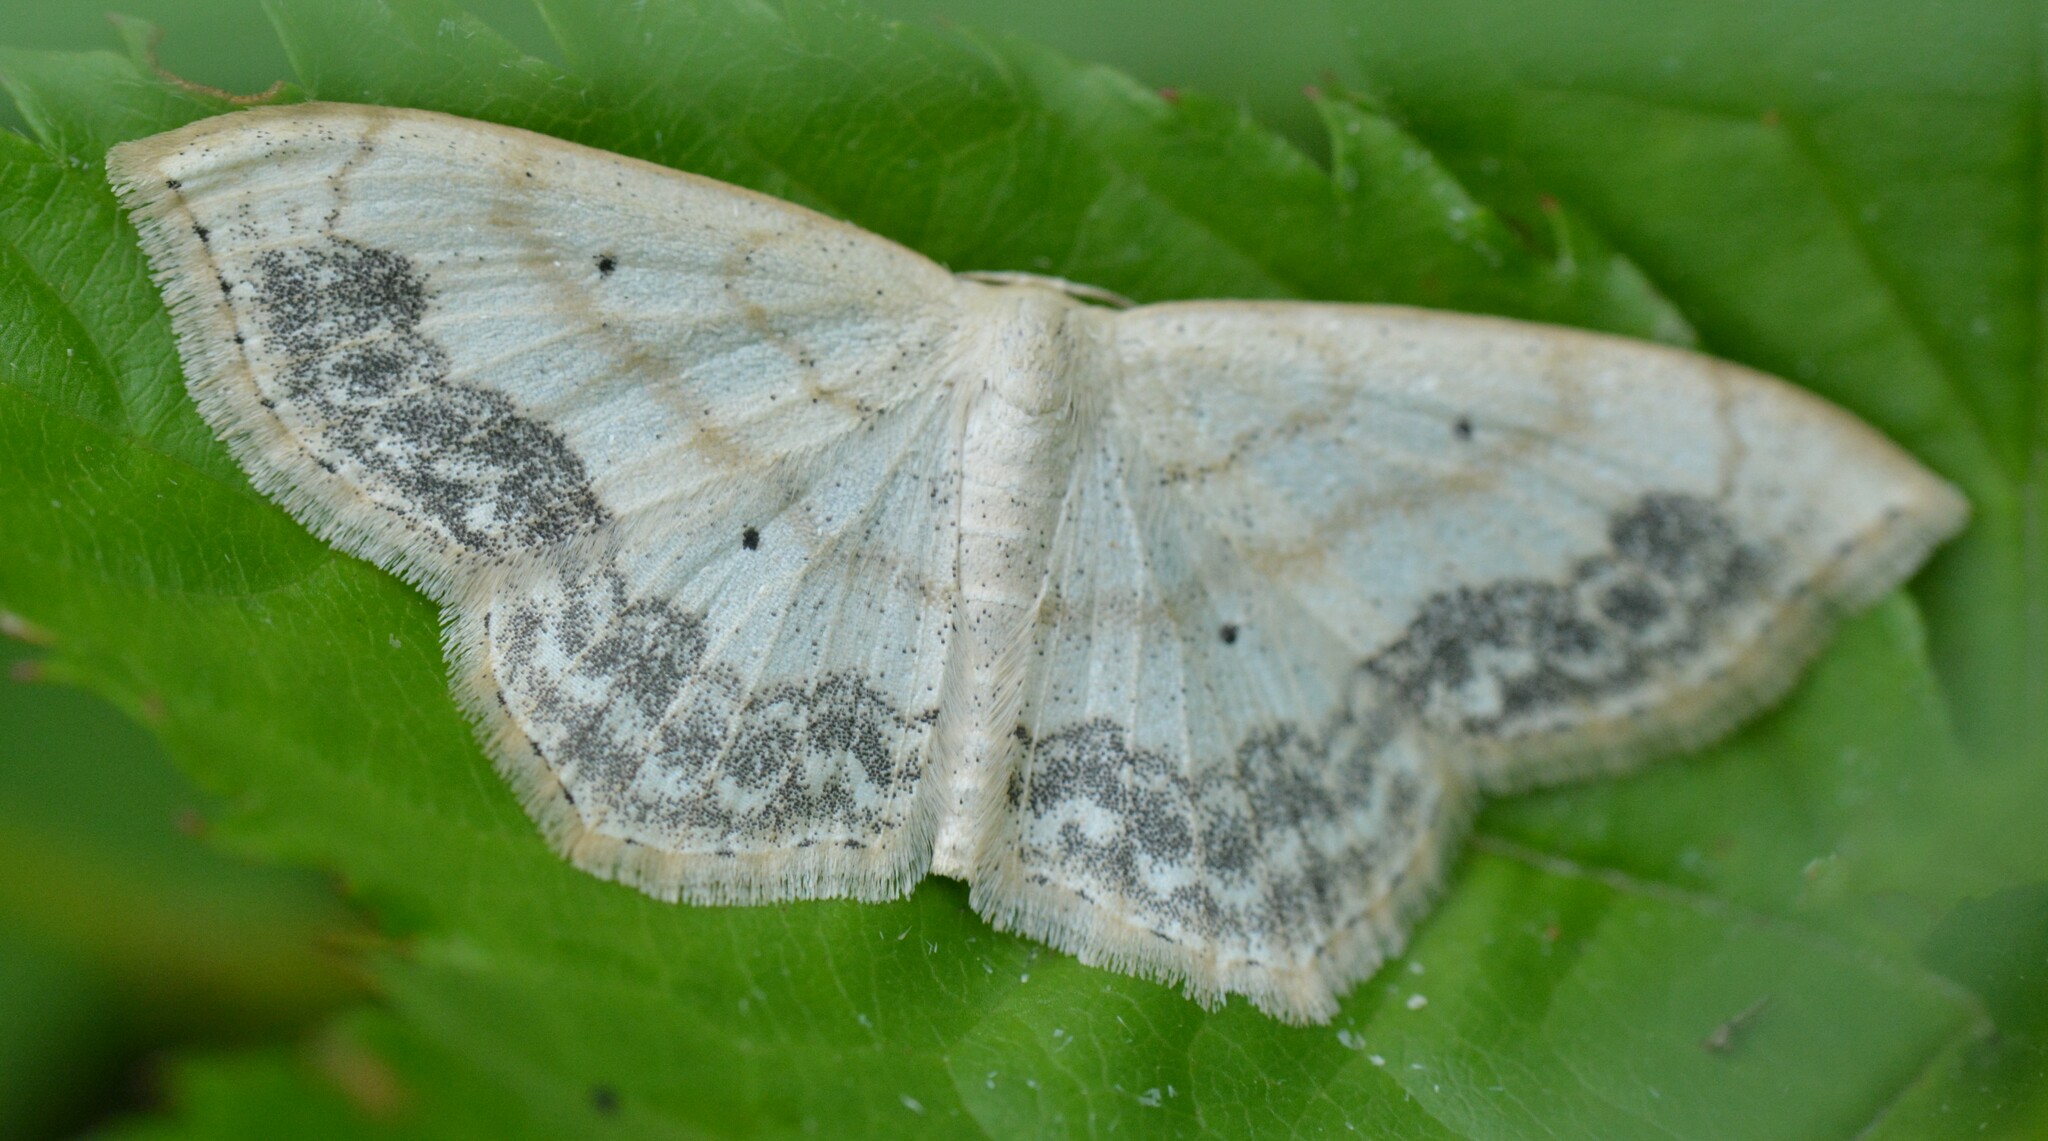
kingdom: Animalia
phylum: Arthropoda
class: Insecta
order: Lepidoptera
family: Geometridae
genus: Scopula
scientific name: Scopula limboundata
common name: Large lace border
